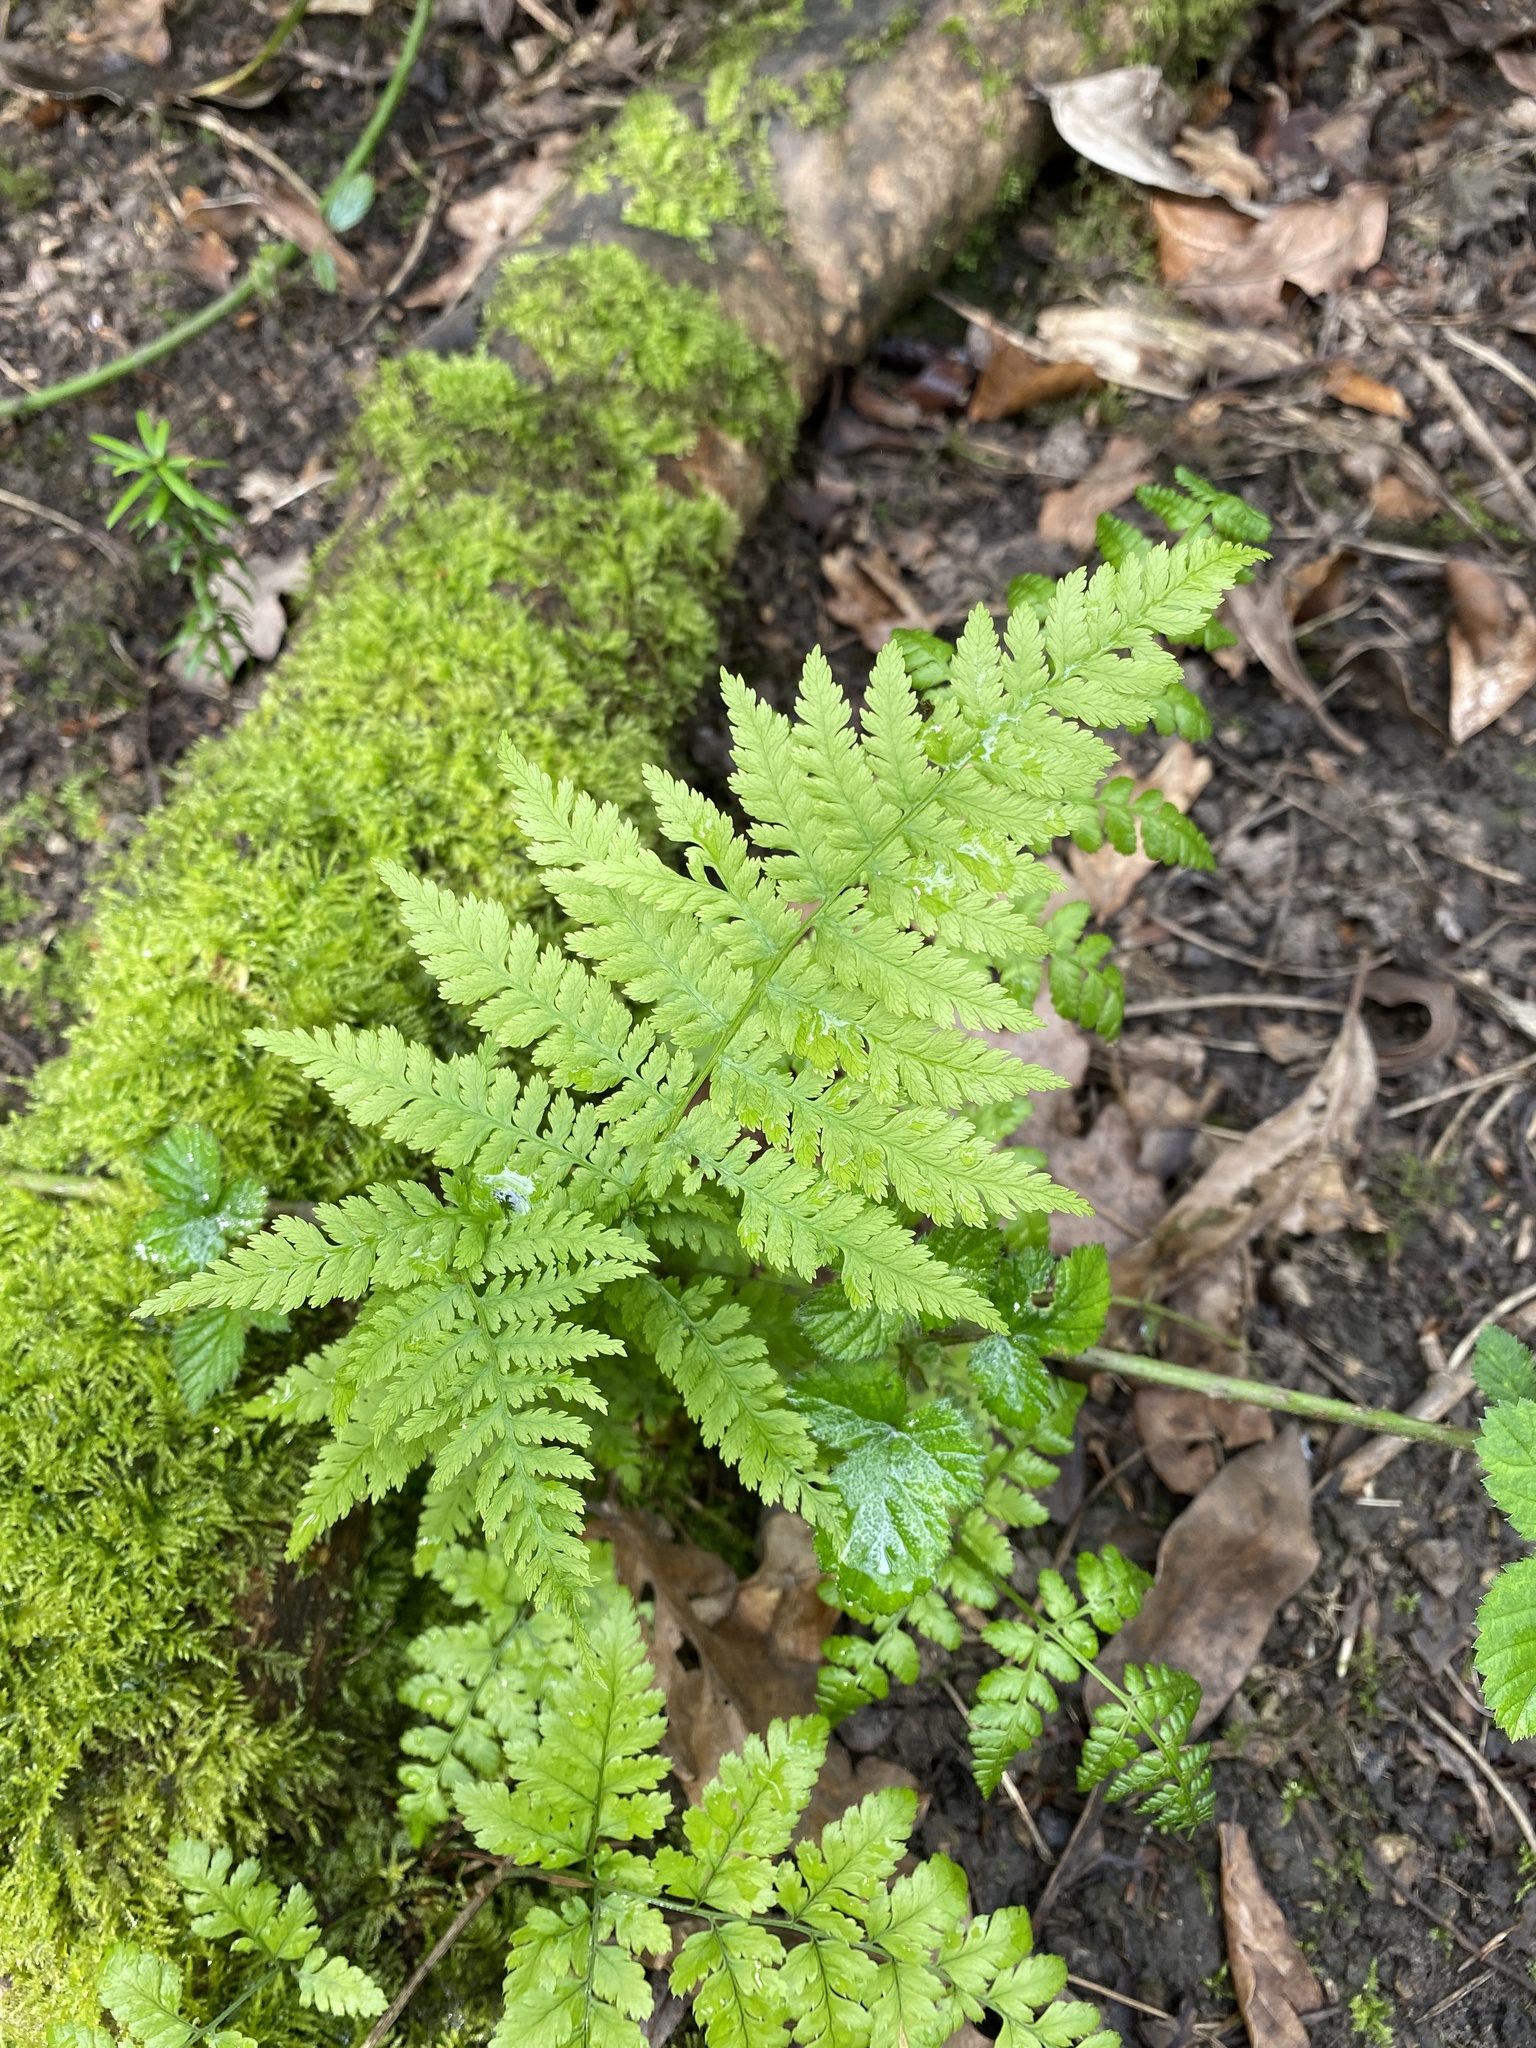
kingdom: Plantae
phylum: Tracheophyta
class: Polypodiopsida
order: Polypodiales
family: Dryopteridaceae
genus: Dryopteris
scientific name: Dryopteris dilatata
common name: Broad buckler-fern
